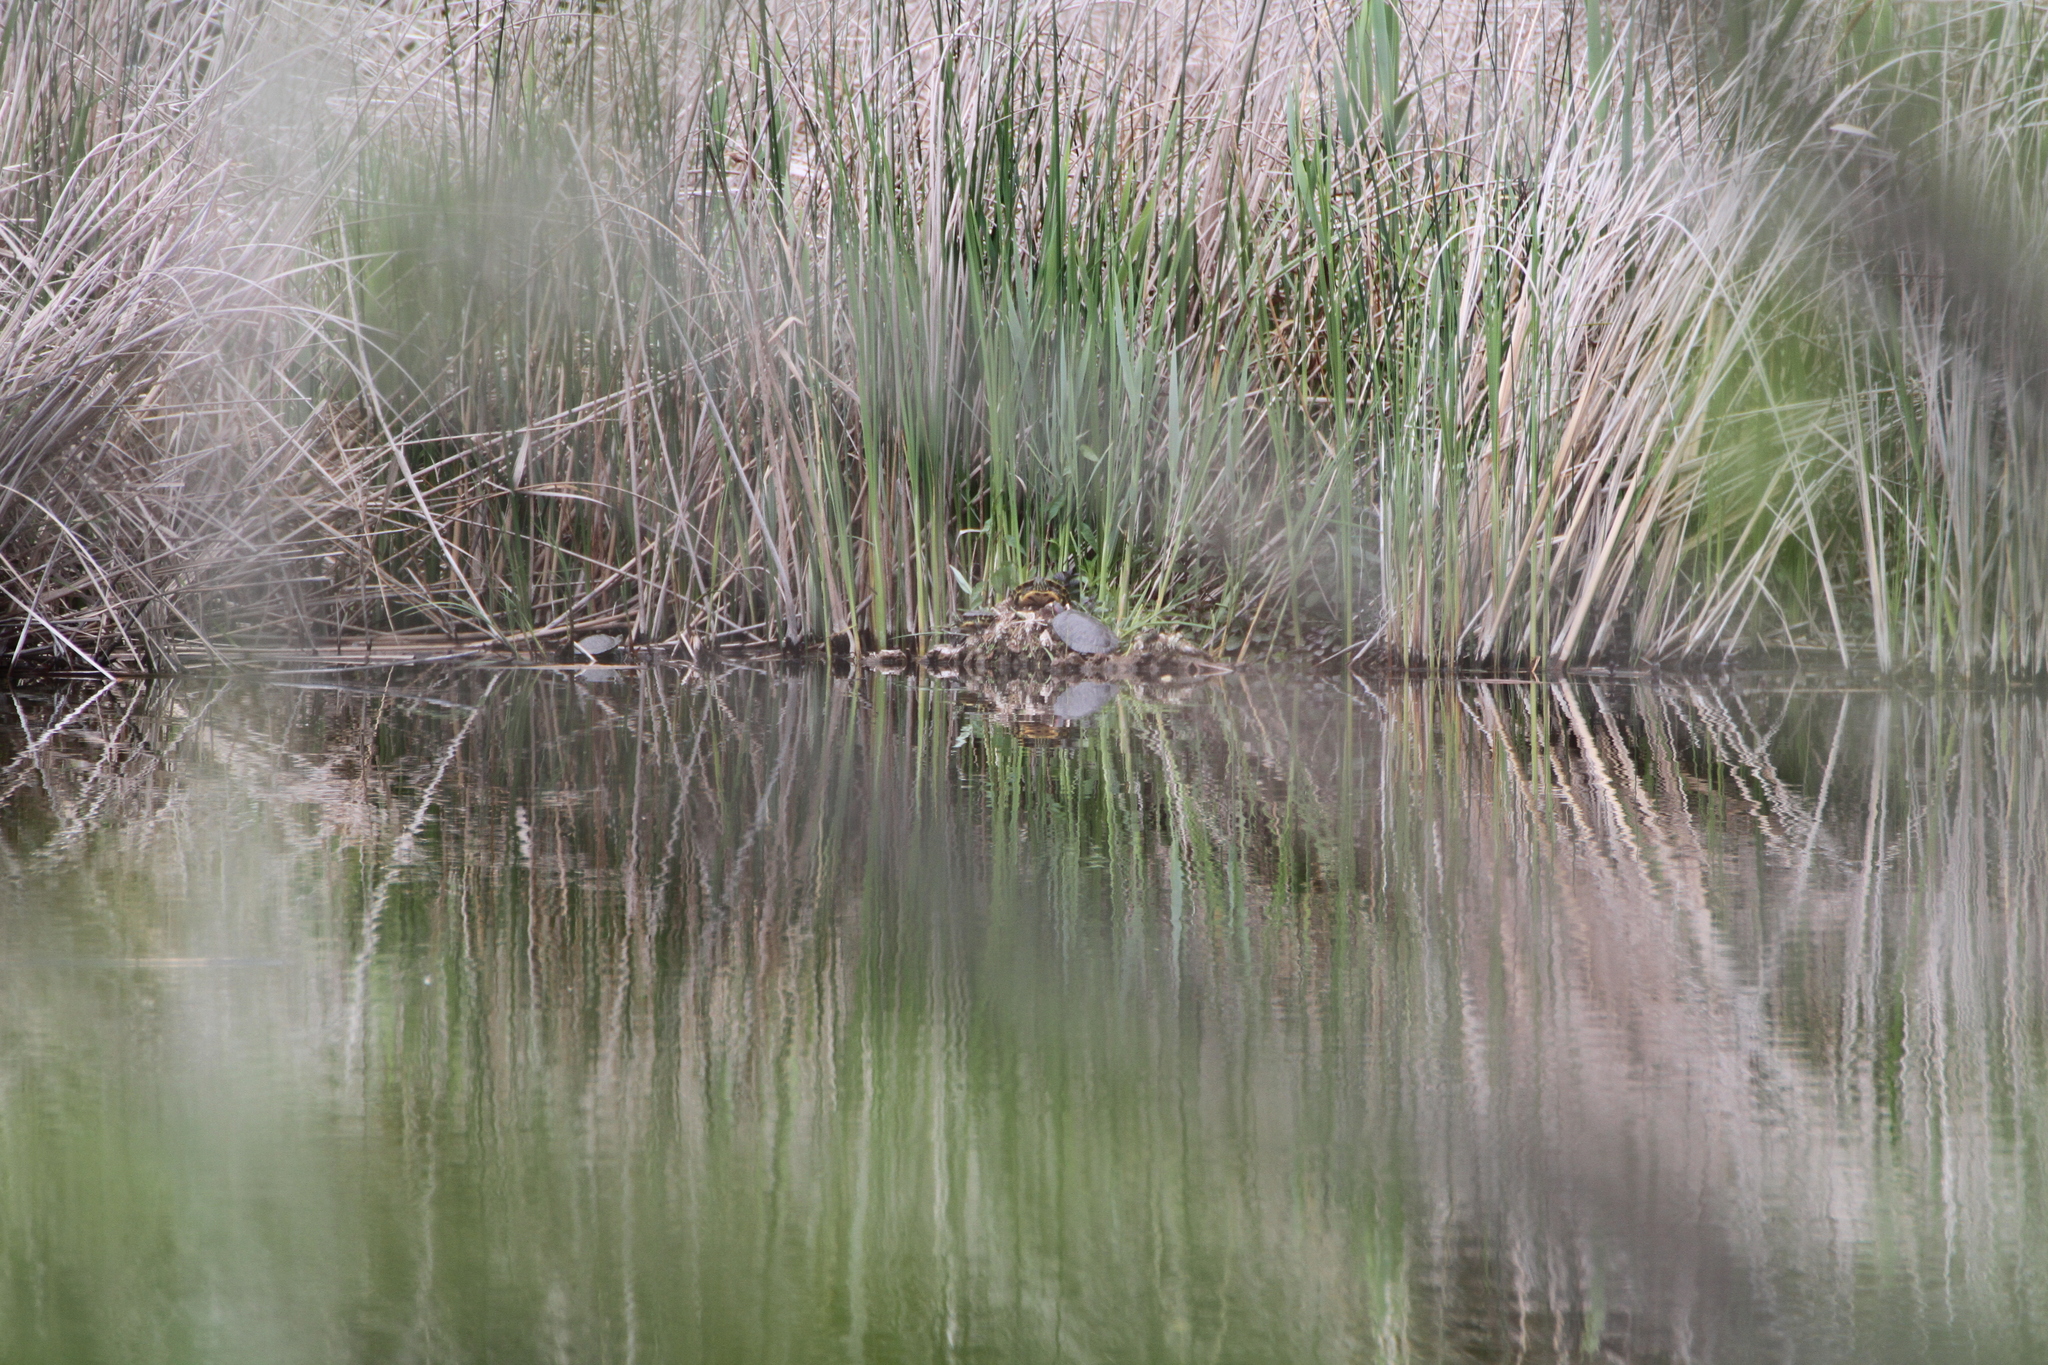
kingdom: Animalia
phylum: Chordata
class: Testudines
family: Emydidae
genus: Trachemys
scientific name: Trachemys scripta
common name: Slider
